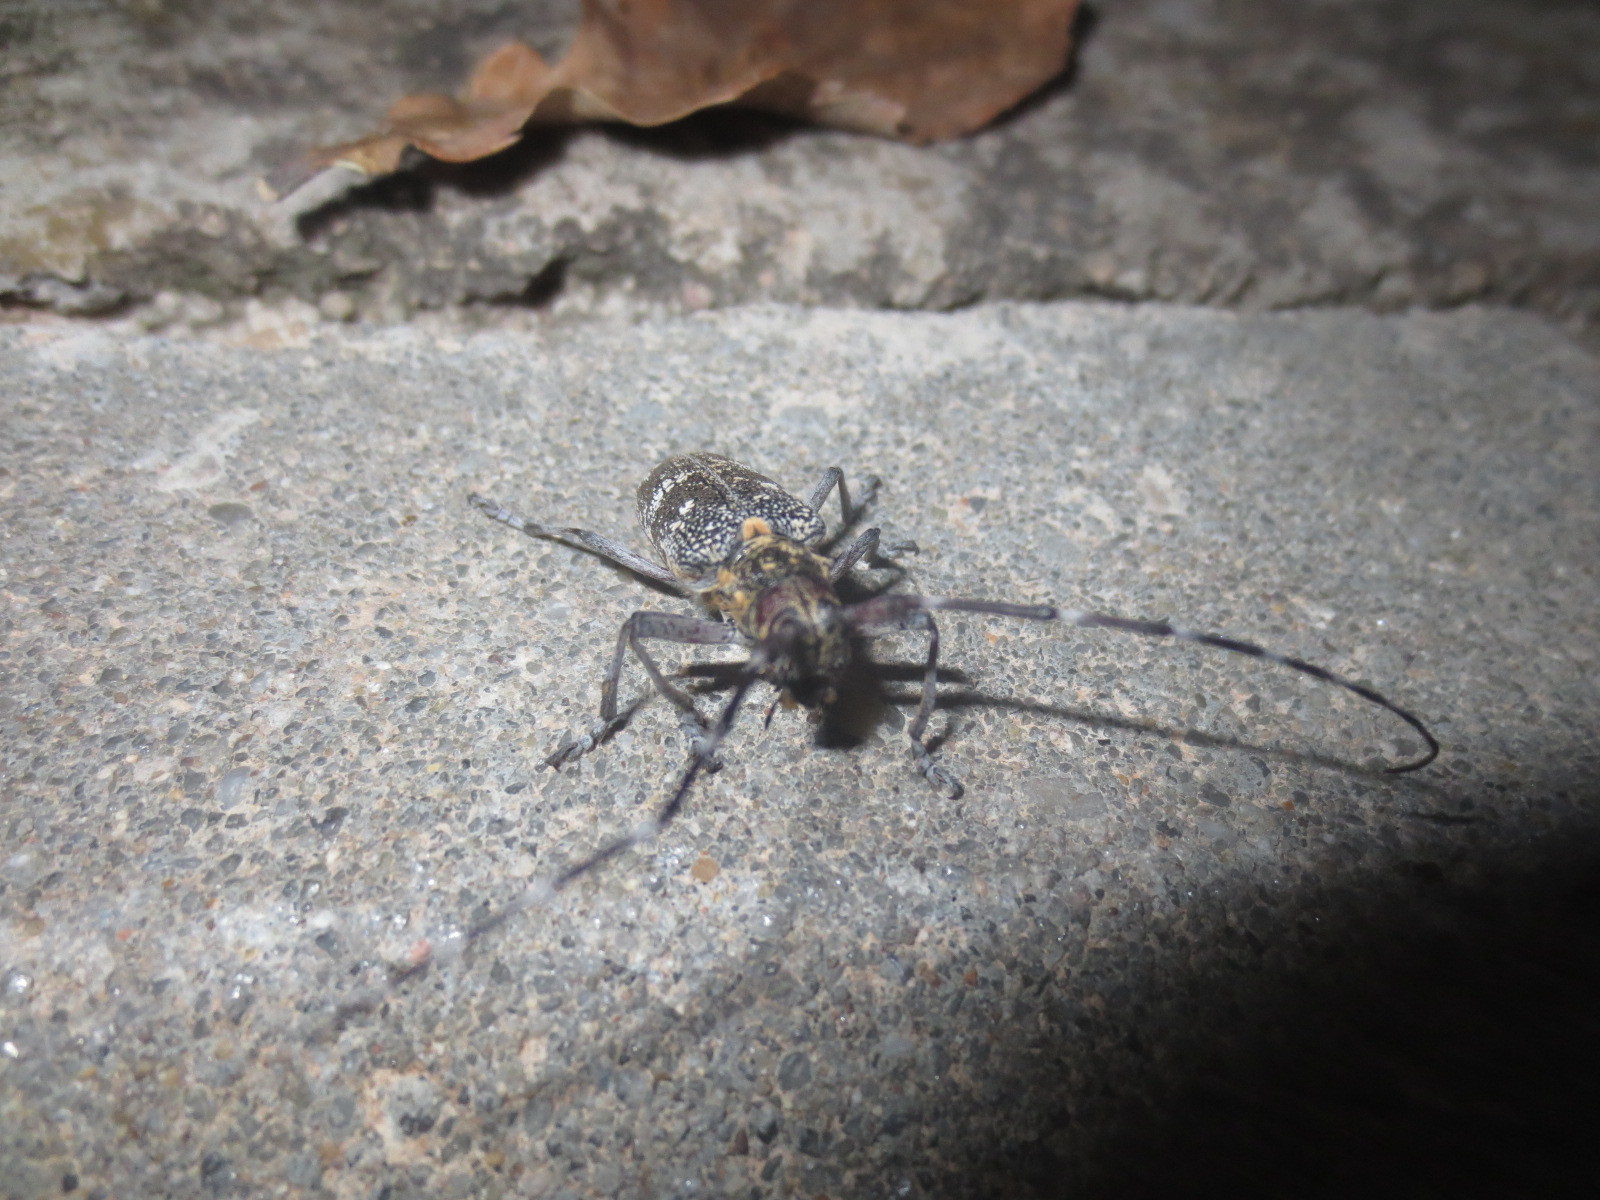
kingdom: Animalia
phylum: Arthropoda
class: Insecta
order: Coleoptera
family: Cerambycidae
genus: Monochamus
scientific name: Monochamus galloprovincialis
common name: Pine sawyer
